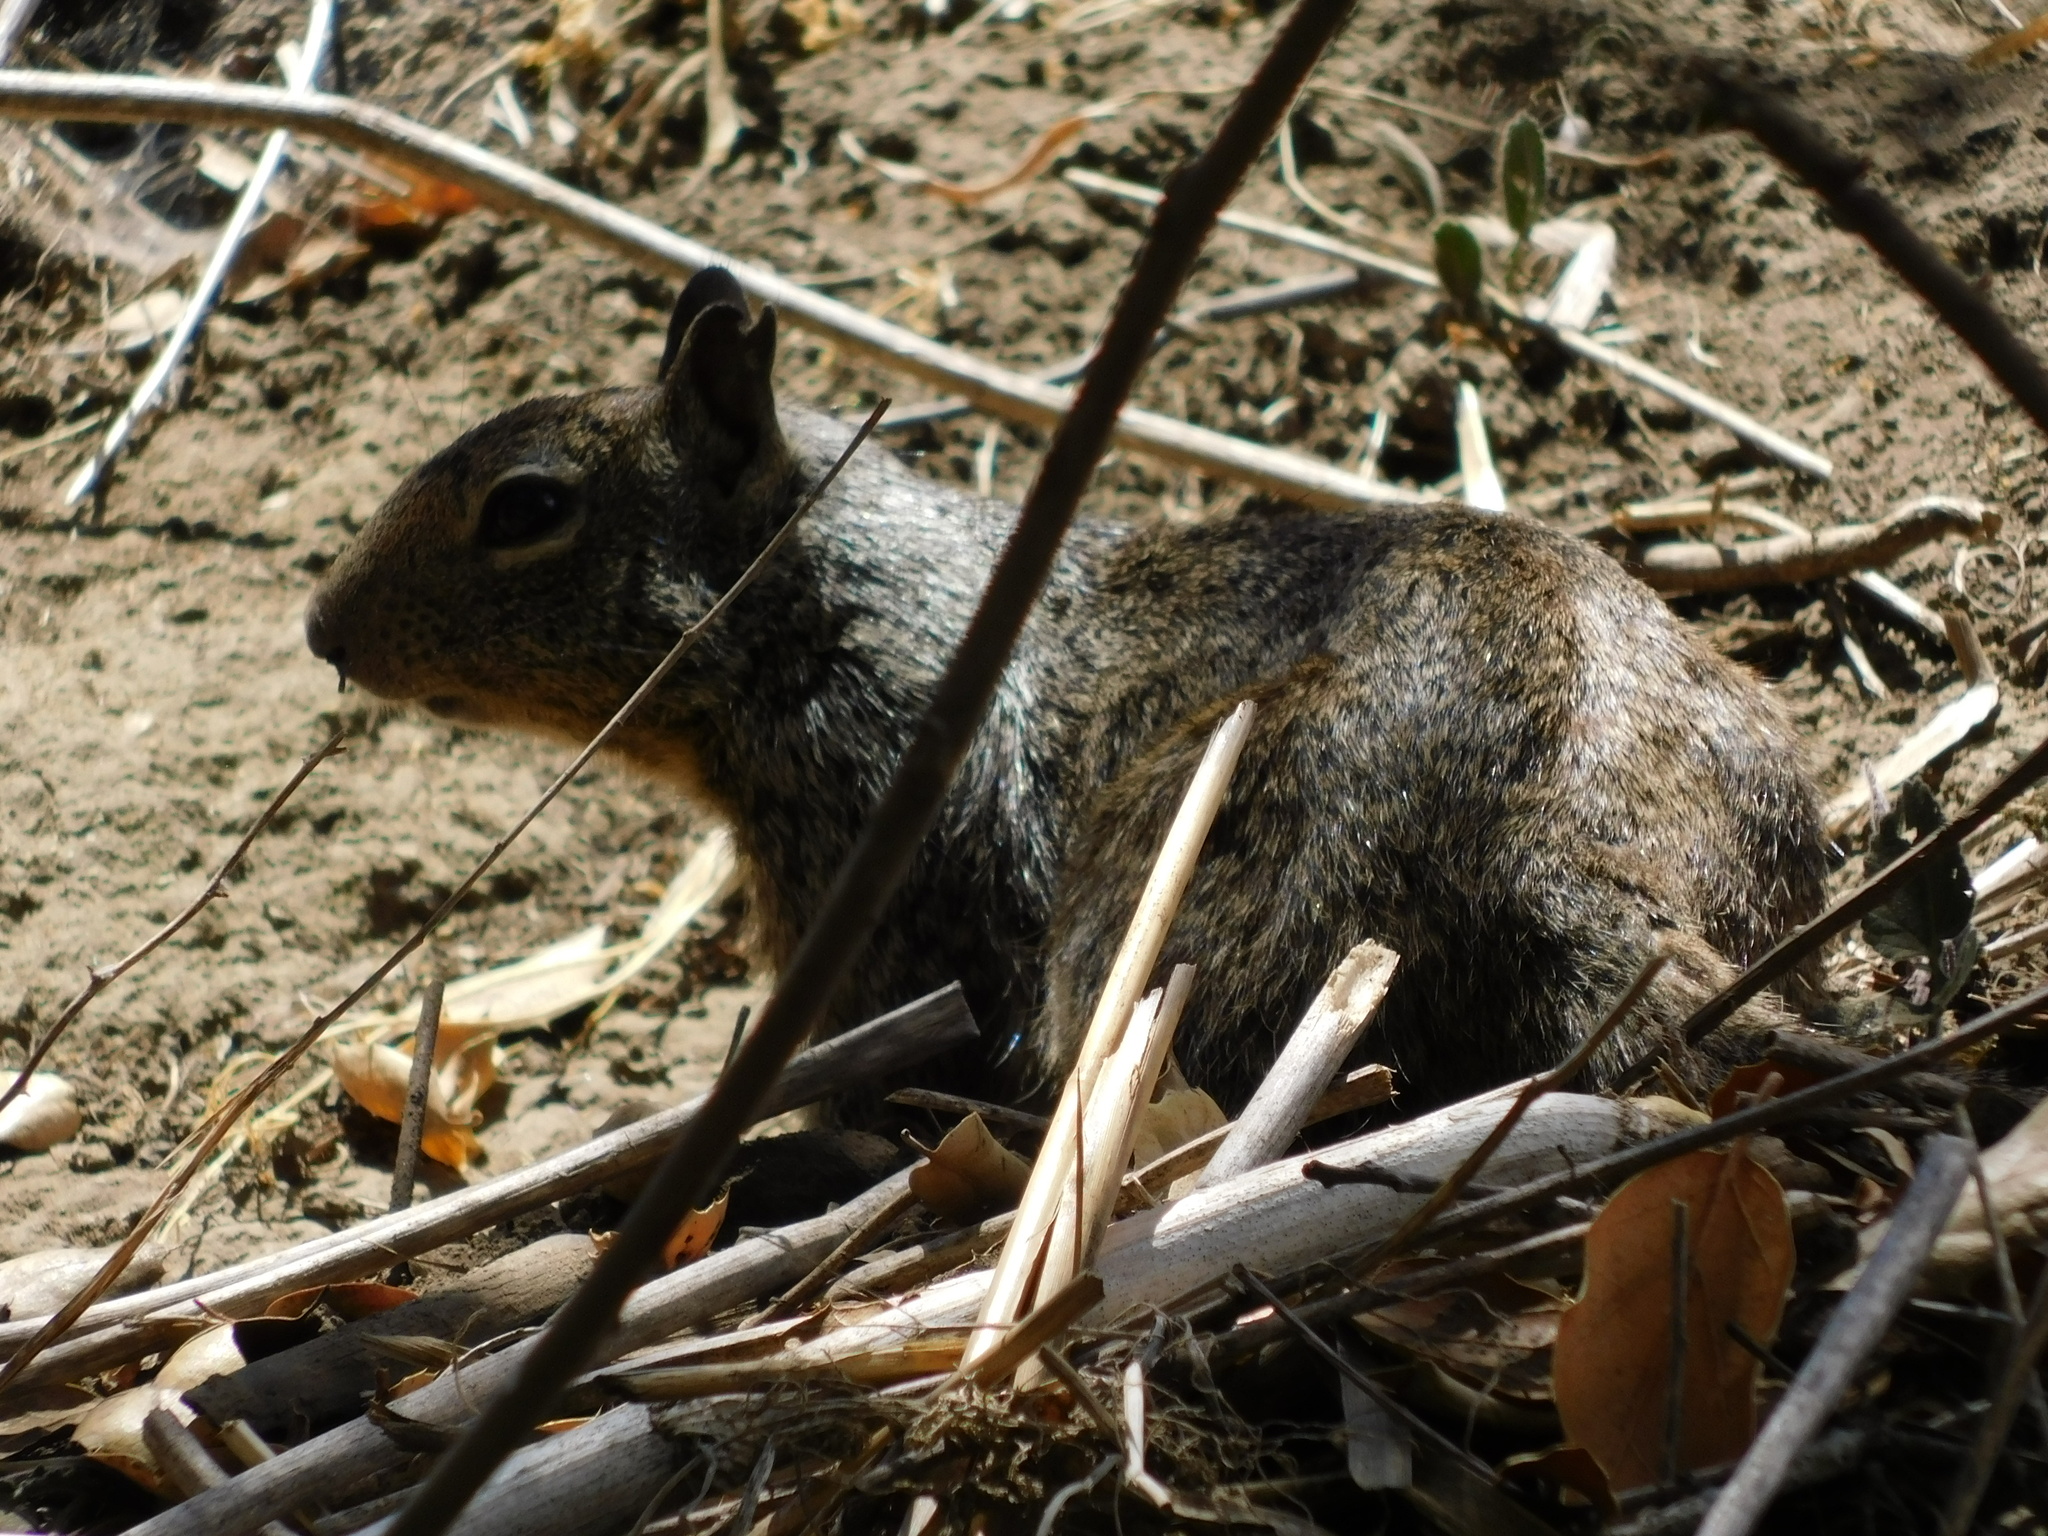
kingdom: Animalia
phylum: Chordata
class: Mammalia
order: Rodentia
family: Sciuridae
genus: Otospermophilus
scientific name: Otospermophilus beecheyi
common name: California ground squirrel
